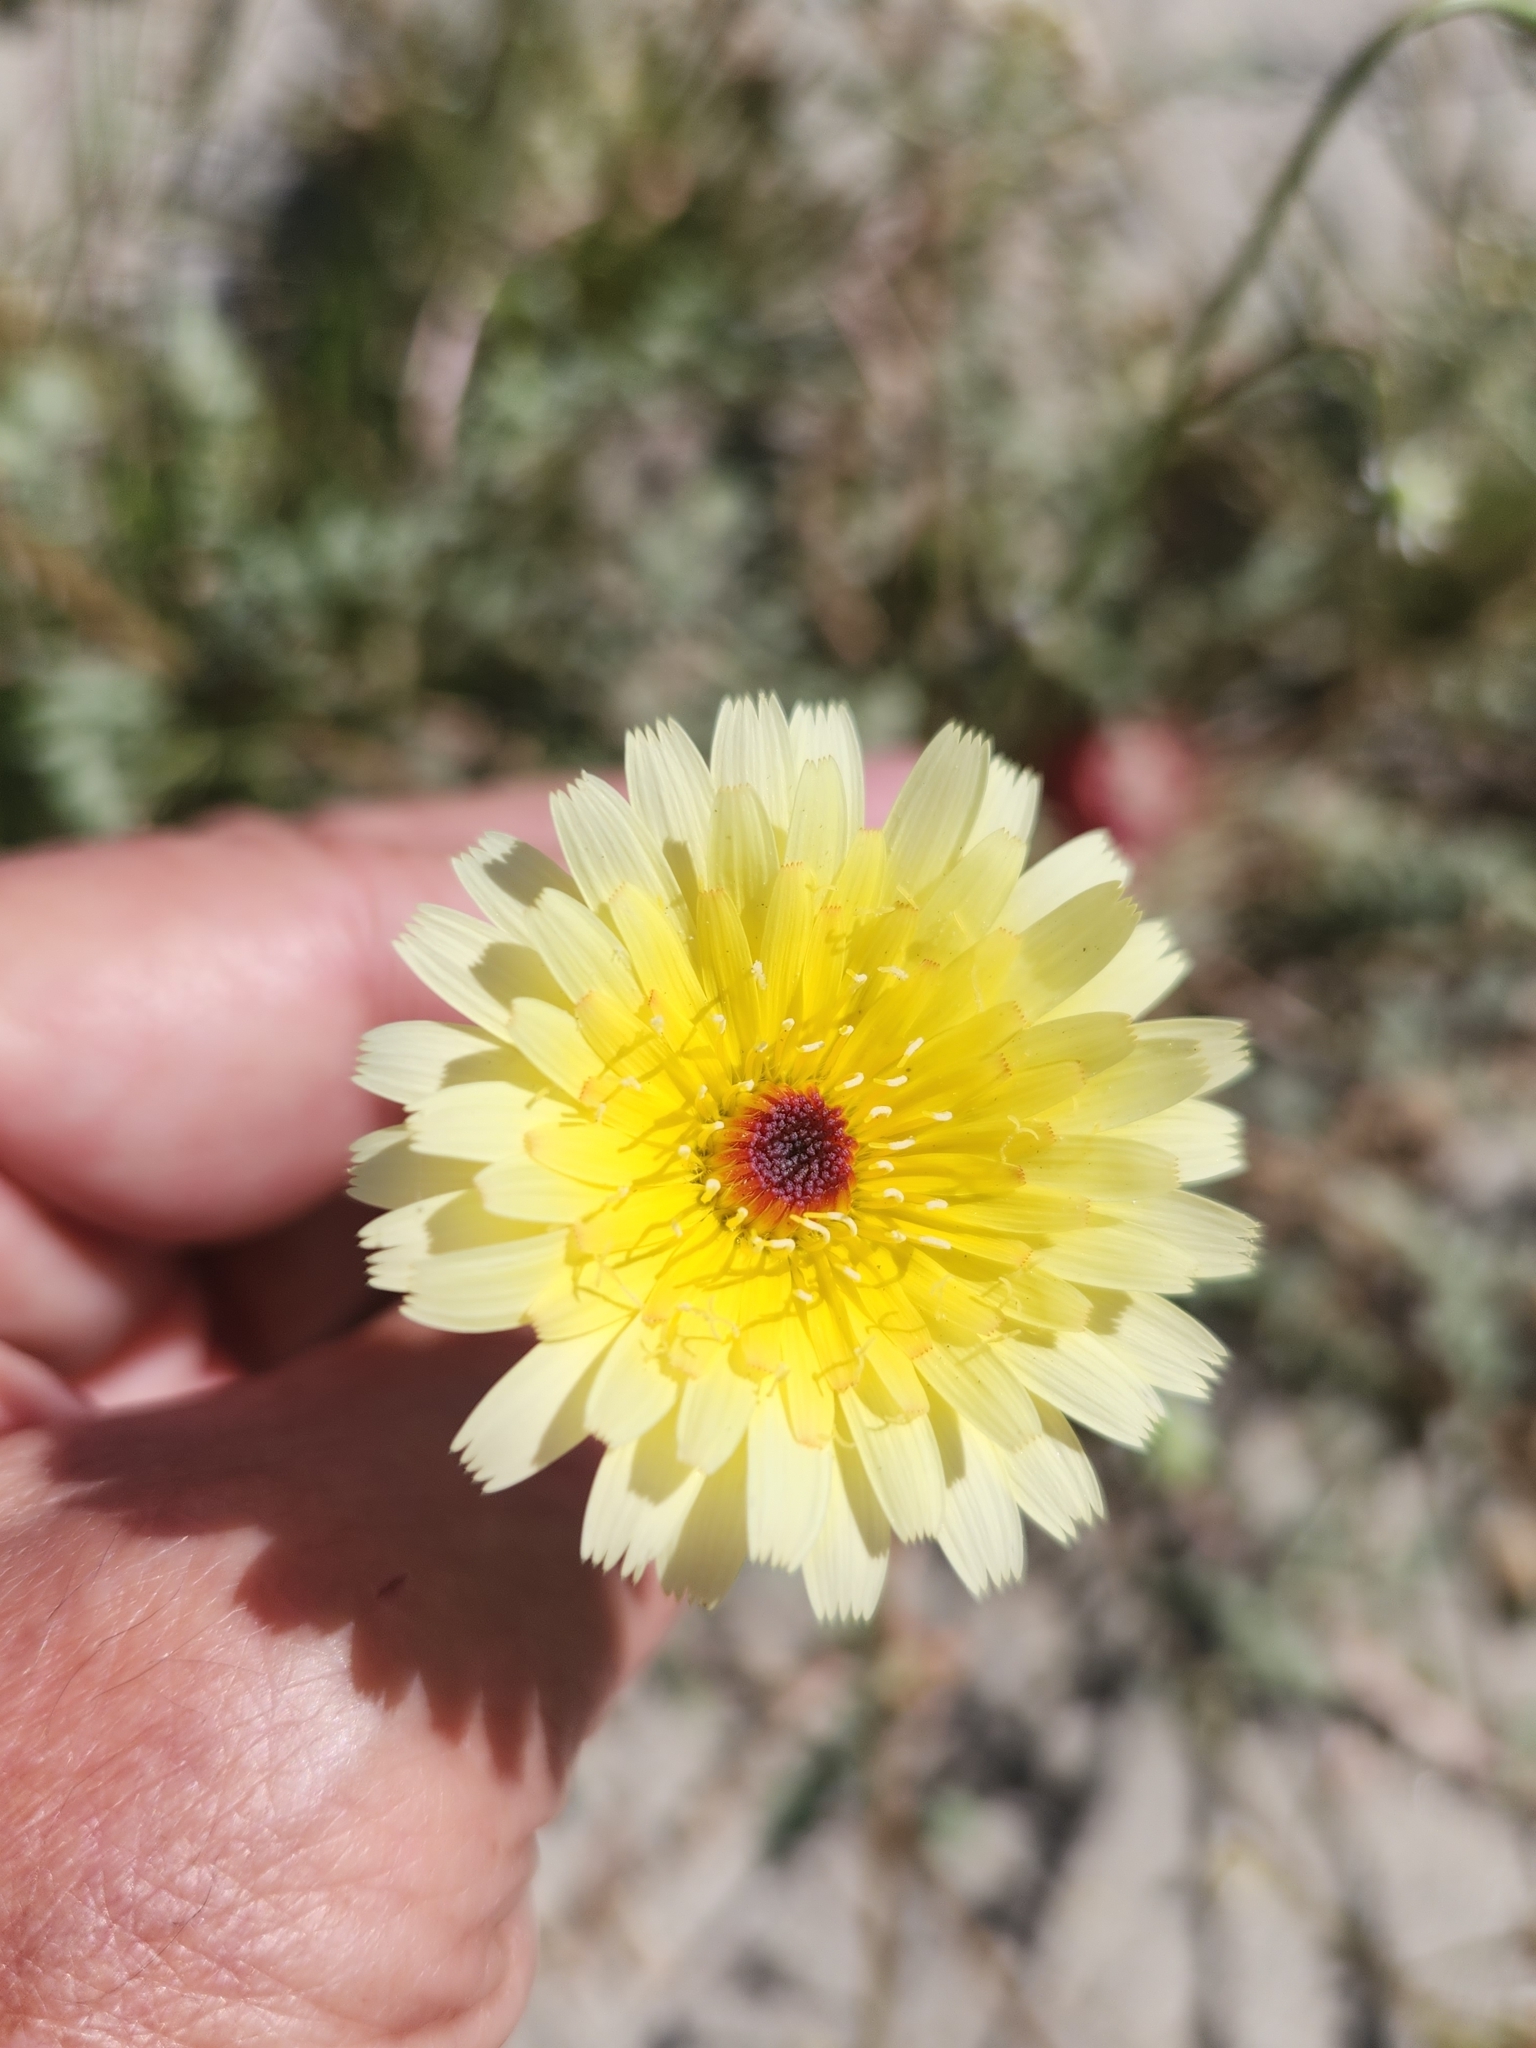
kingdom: Plantae
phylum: Tracheophyta
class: Magnoliopsida
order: Asterales
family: Asteraceae
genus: Malacothrix
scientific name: Malacothrix glabrata
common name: Smooth desert-dandelion
